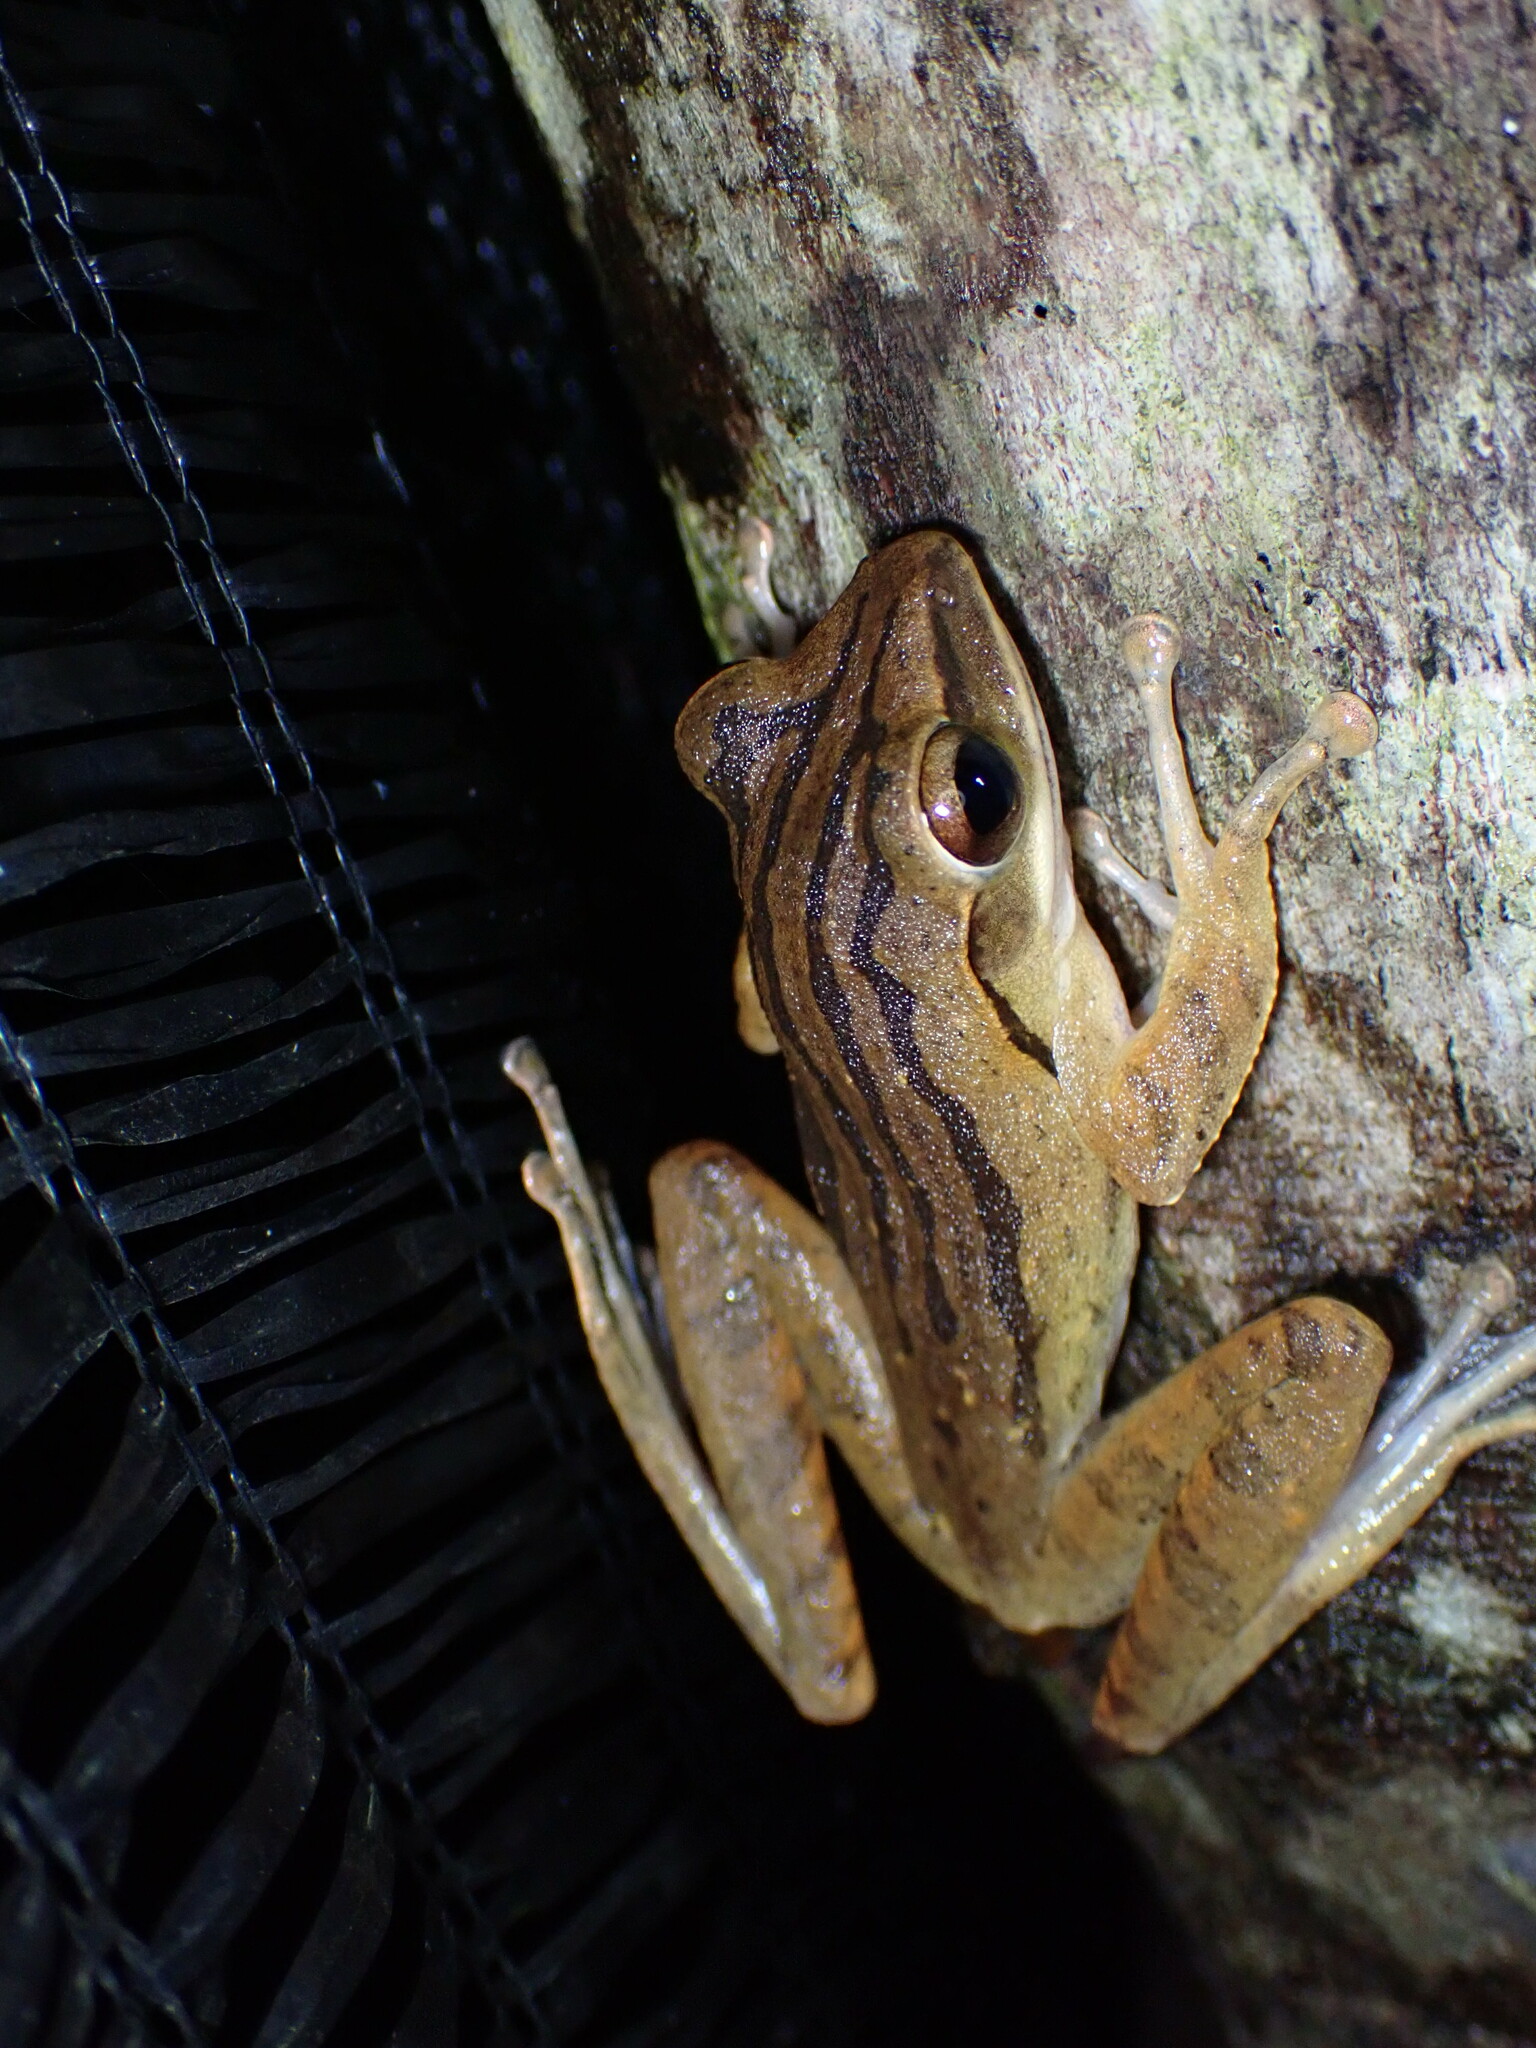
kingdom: Animalia
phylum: Chordata
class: Amphibia
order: Anura
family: Rhacophoridae
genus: Polypedates
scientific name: Polypedates leucomystax
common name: Common tree frog/four-lined tree frog
